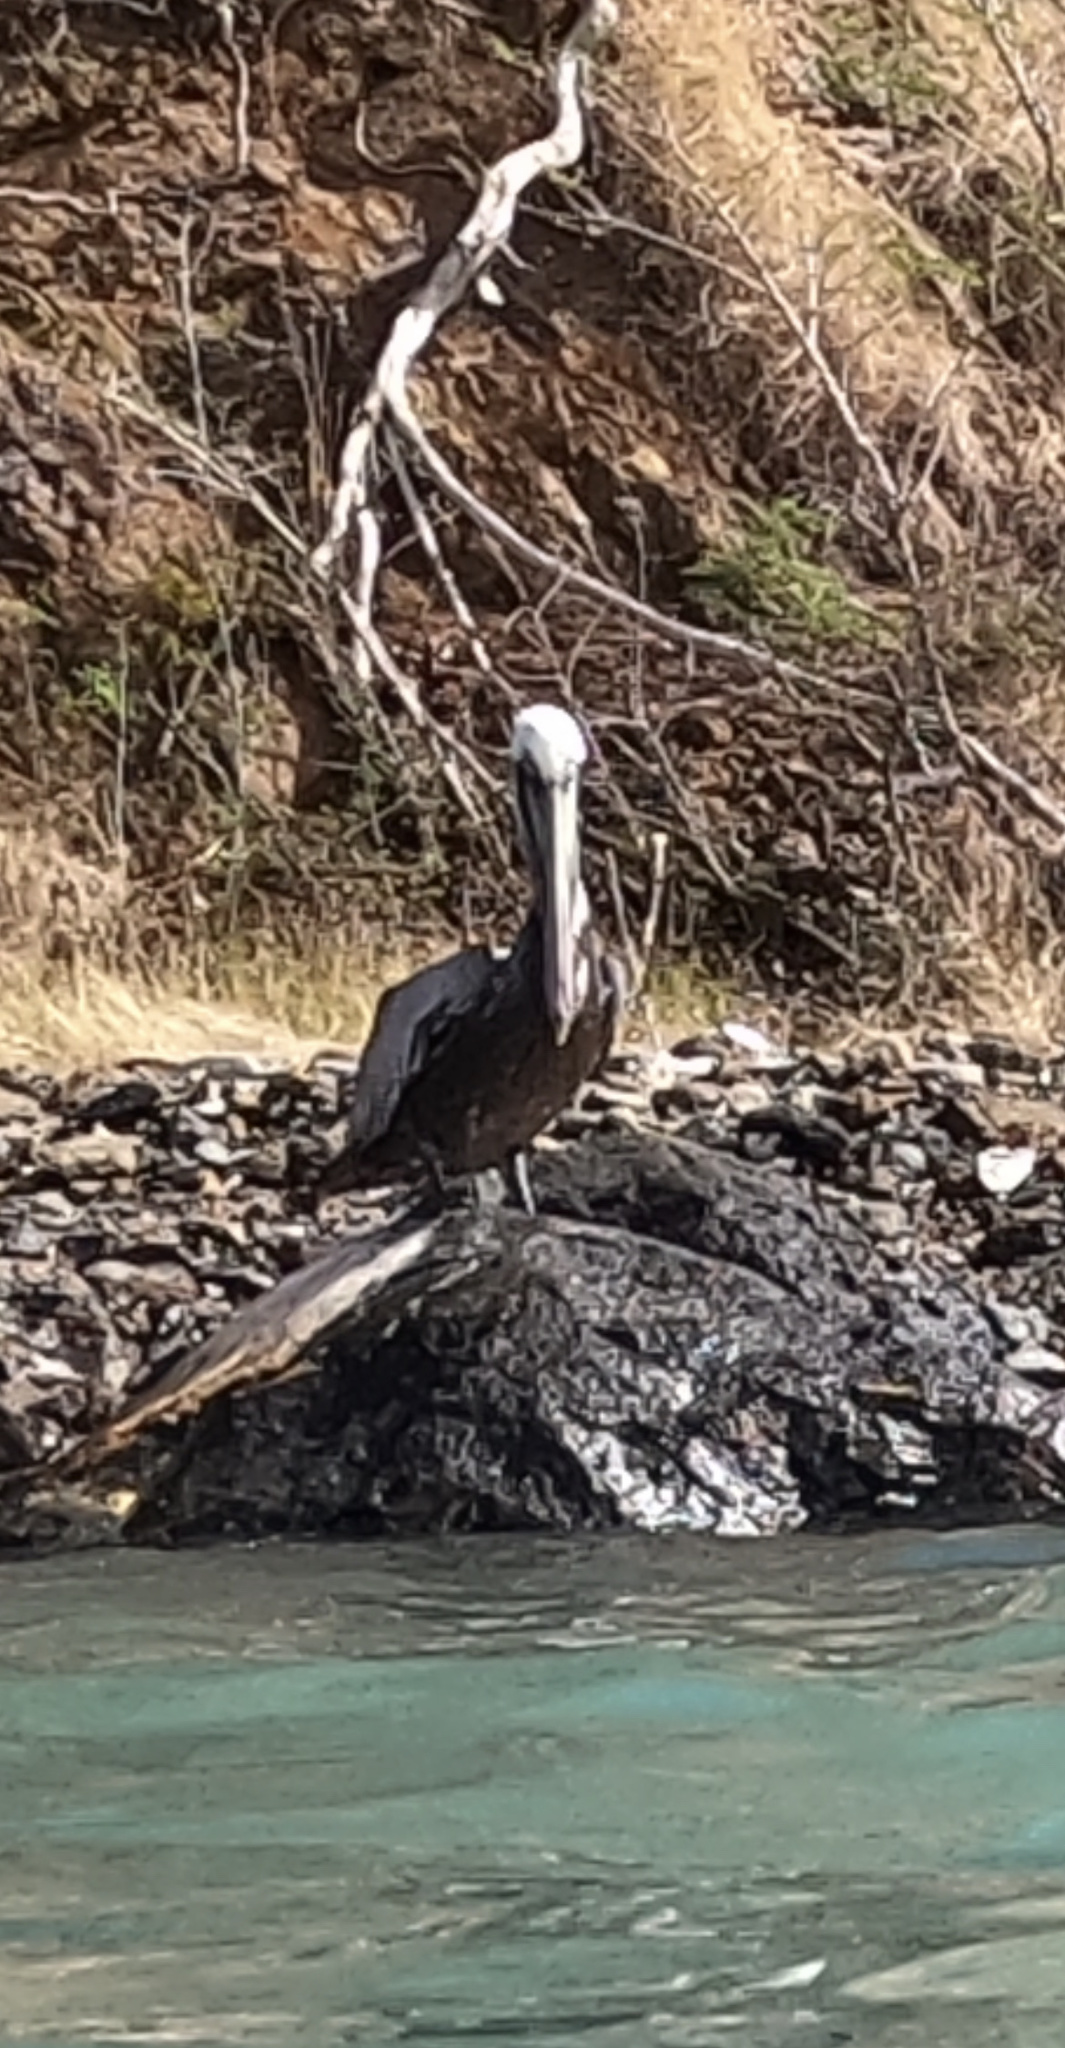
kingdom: Animalia
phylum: Chordata
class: Aves
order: Pelecaniformes
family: Pelecanidae
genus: Pelecanus
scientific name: Pelecanus occidentalis
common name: Brown pelican
